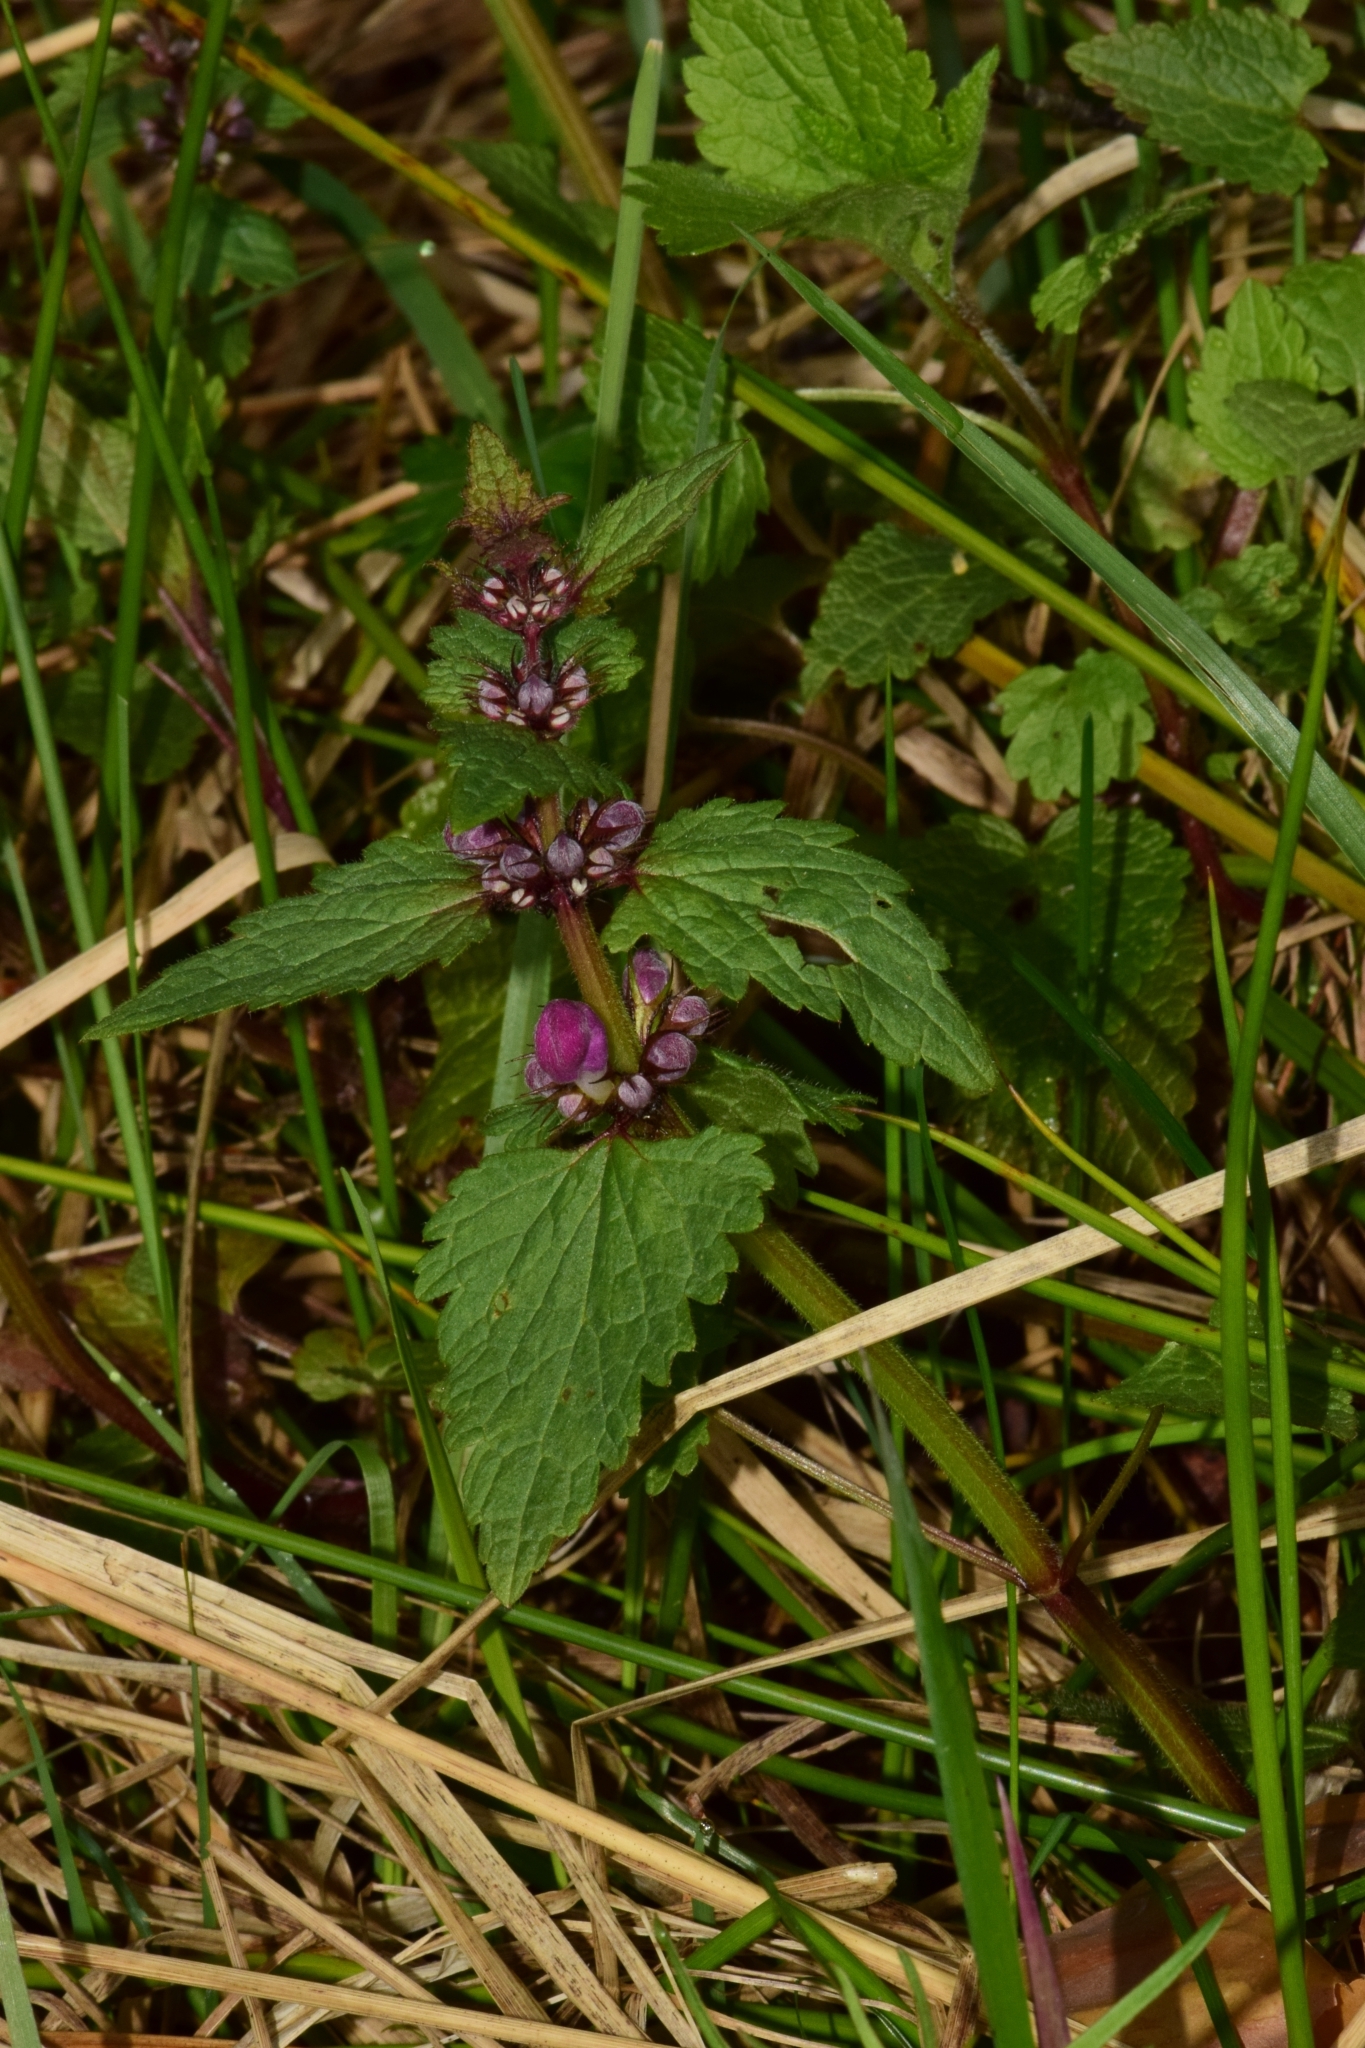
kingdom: Plantae
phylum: Tracheophyta
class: Magnoliopsida
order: Lamiales
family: Lamiaceae
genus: Lamium
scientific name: Lamium maculatum
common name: Spotted dead-nettle
